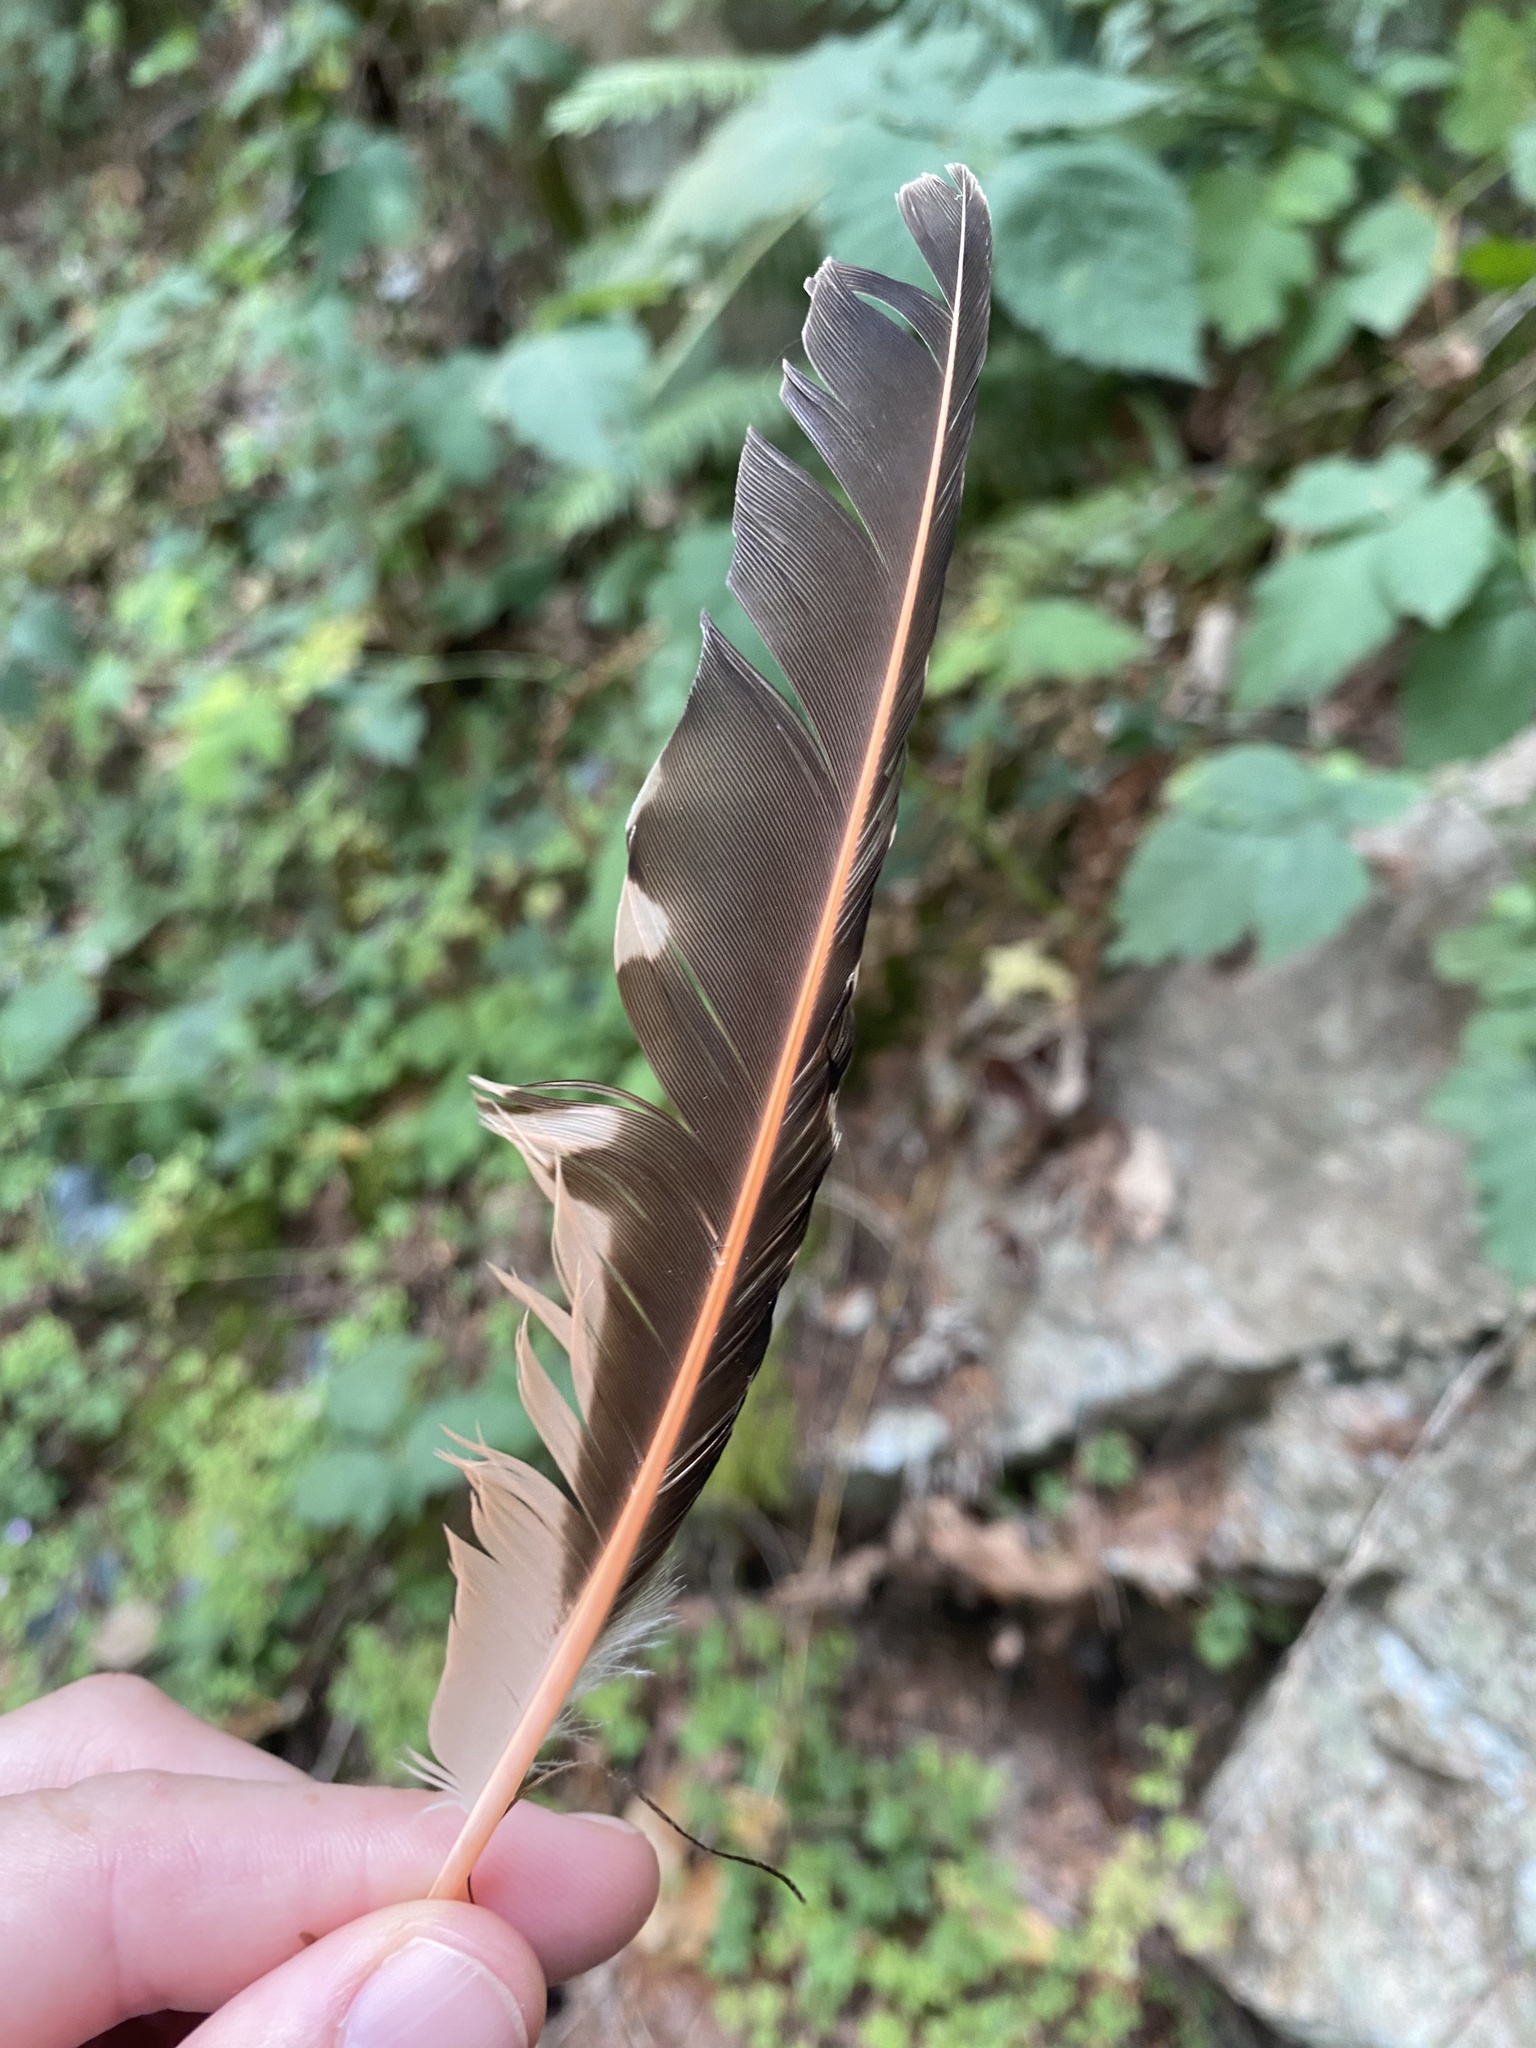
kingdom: Animalia
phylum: Chordata
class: Aves
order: Piciformes
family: Picidae
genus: Colaptes
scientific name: Colaptes auratus
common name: Northern flicker
